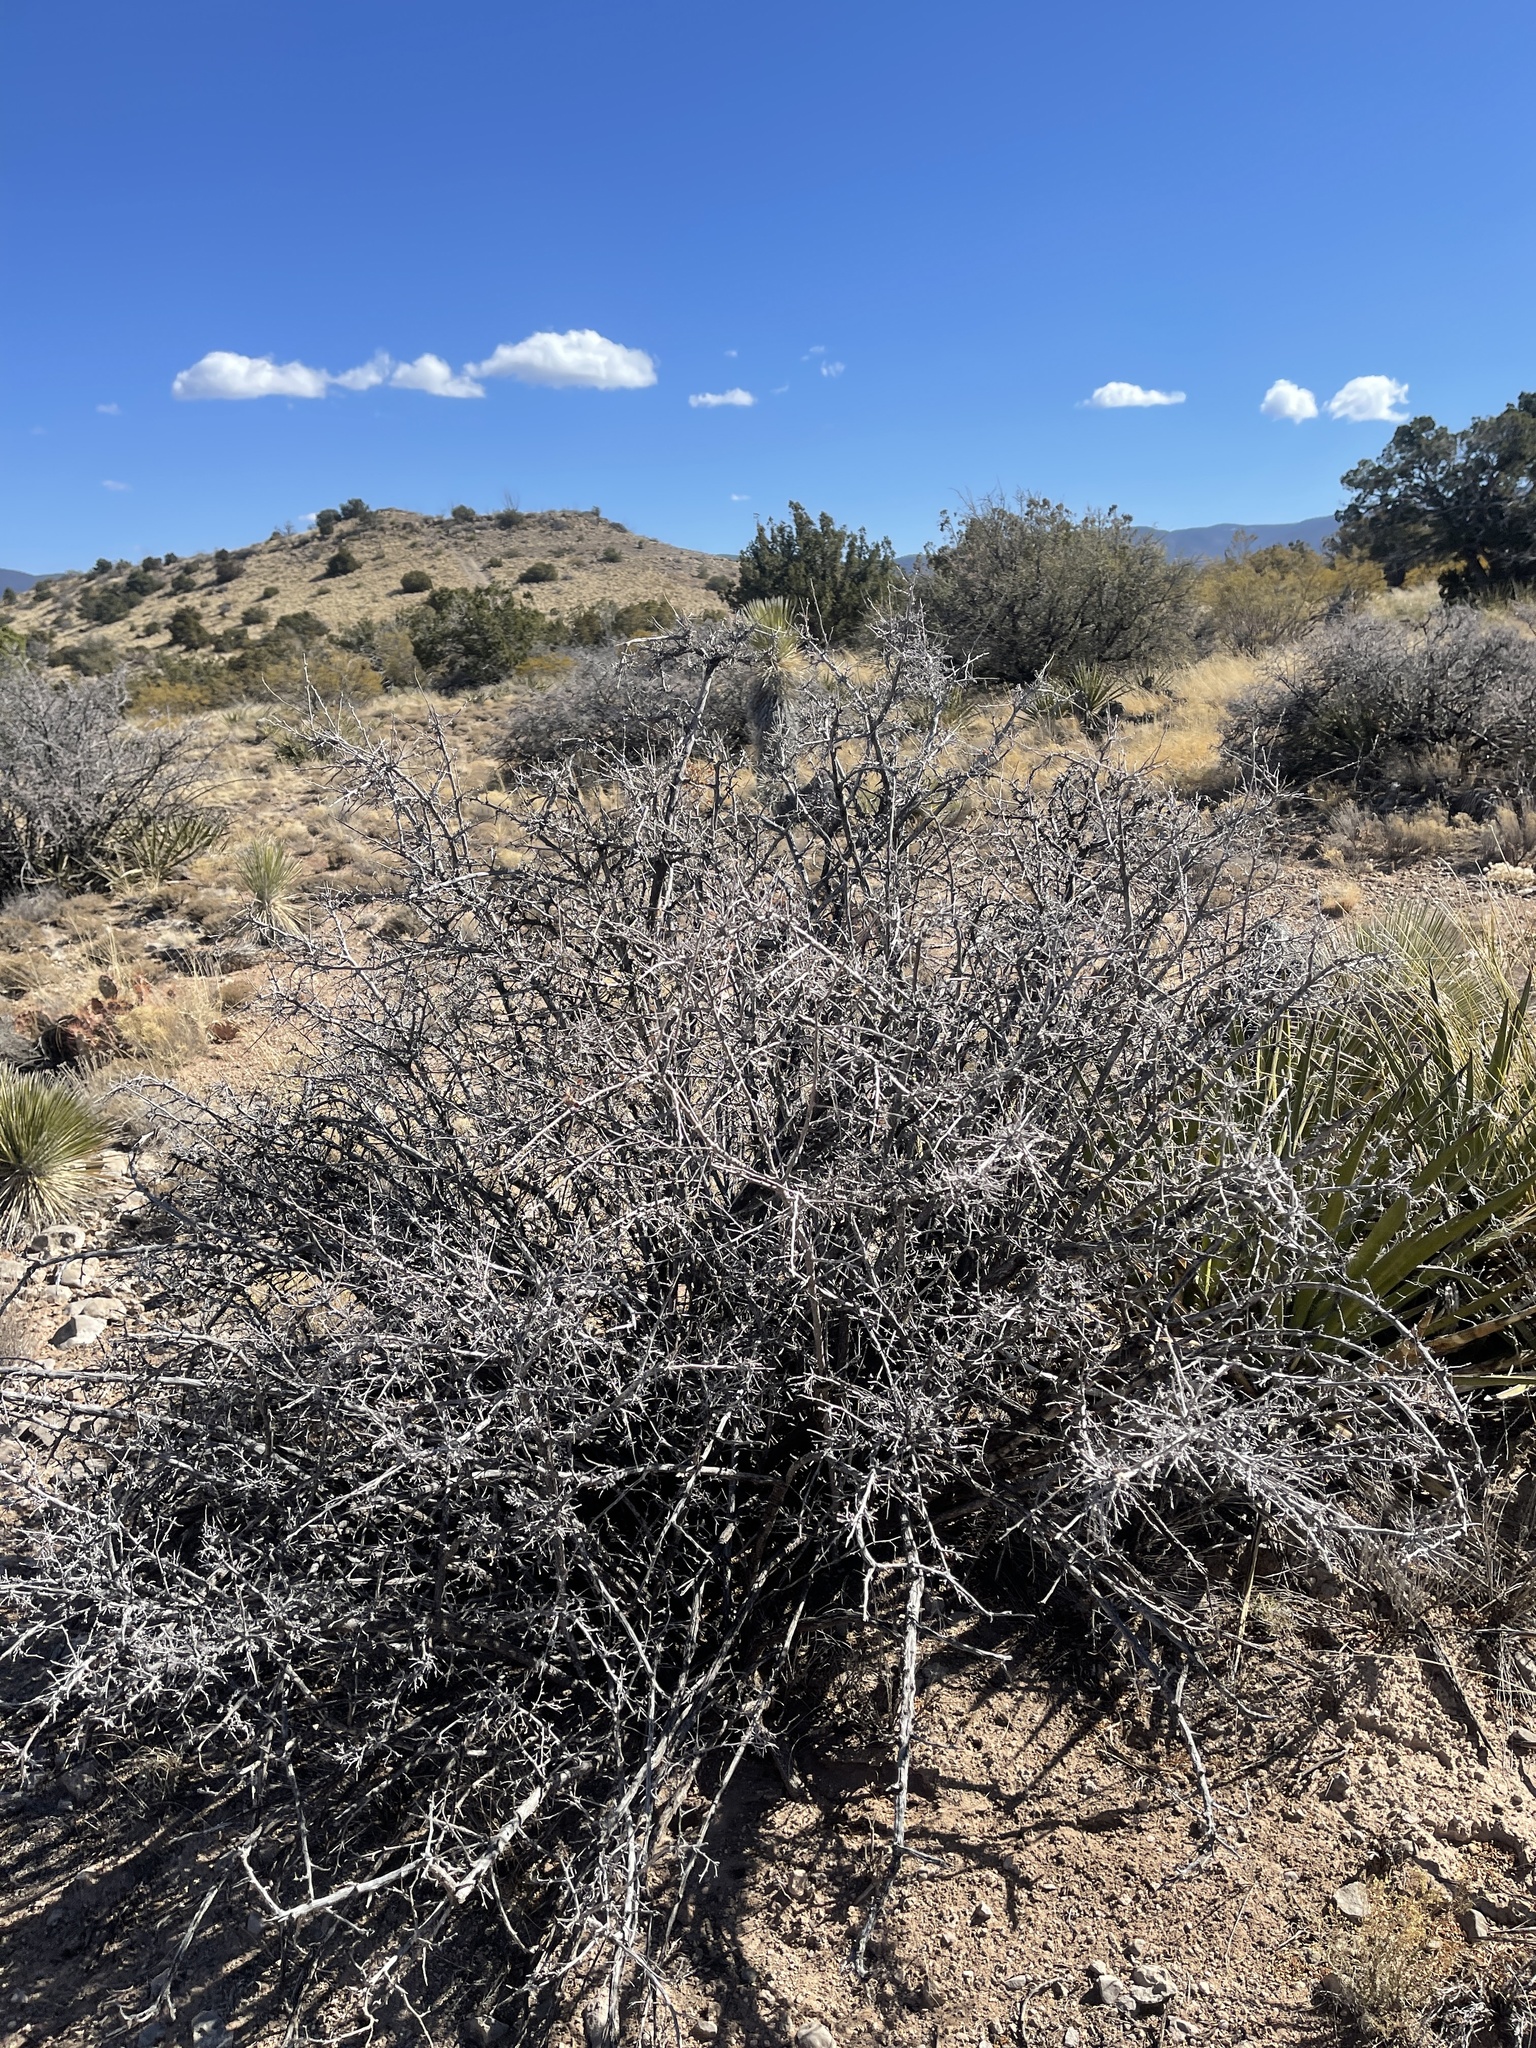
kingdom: Plantae
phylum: Tracheophyta
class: Magnoliopsida
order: Sapindales
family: Anacardiaceae
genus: Rhus
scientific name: Rhus microphylla
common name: Desert sumac
